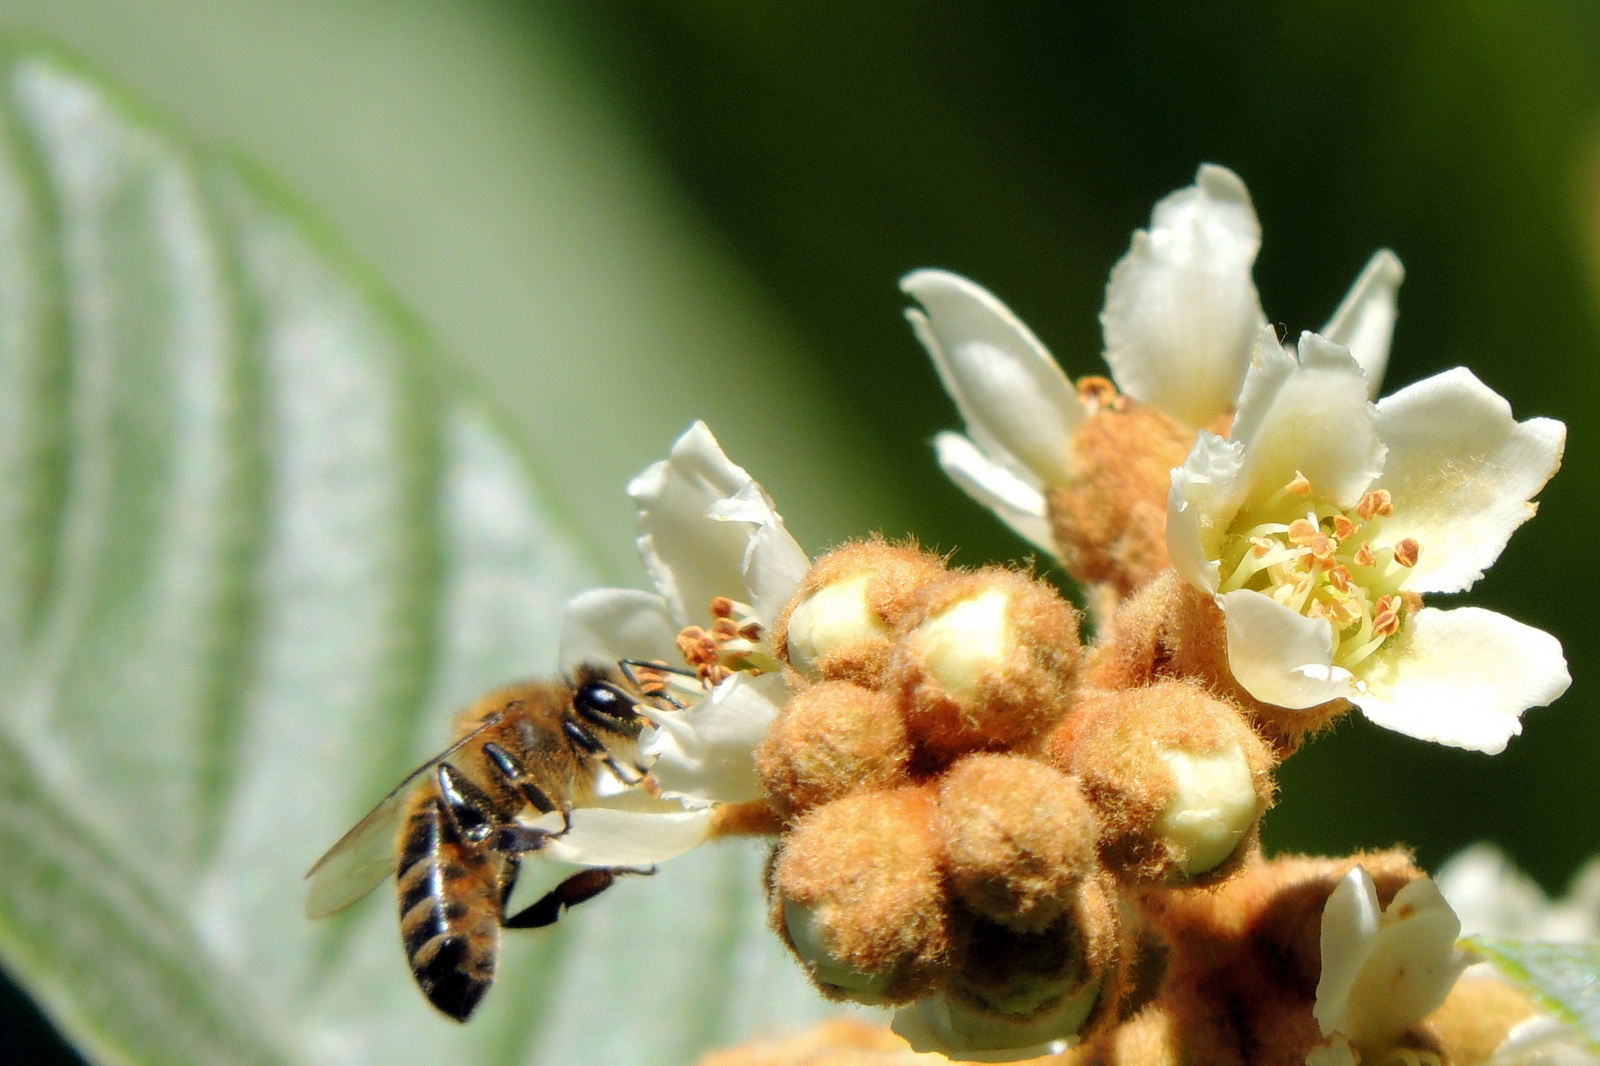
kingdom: Animalia
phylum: Arthropoda
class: Insecta
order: Hymenoptera
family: Apidae
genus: Apis
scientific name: Apis mellifera
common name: Honey bee
